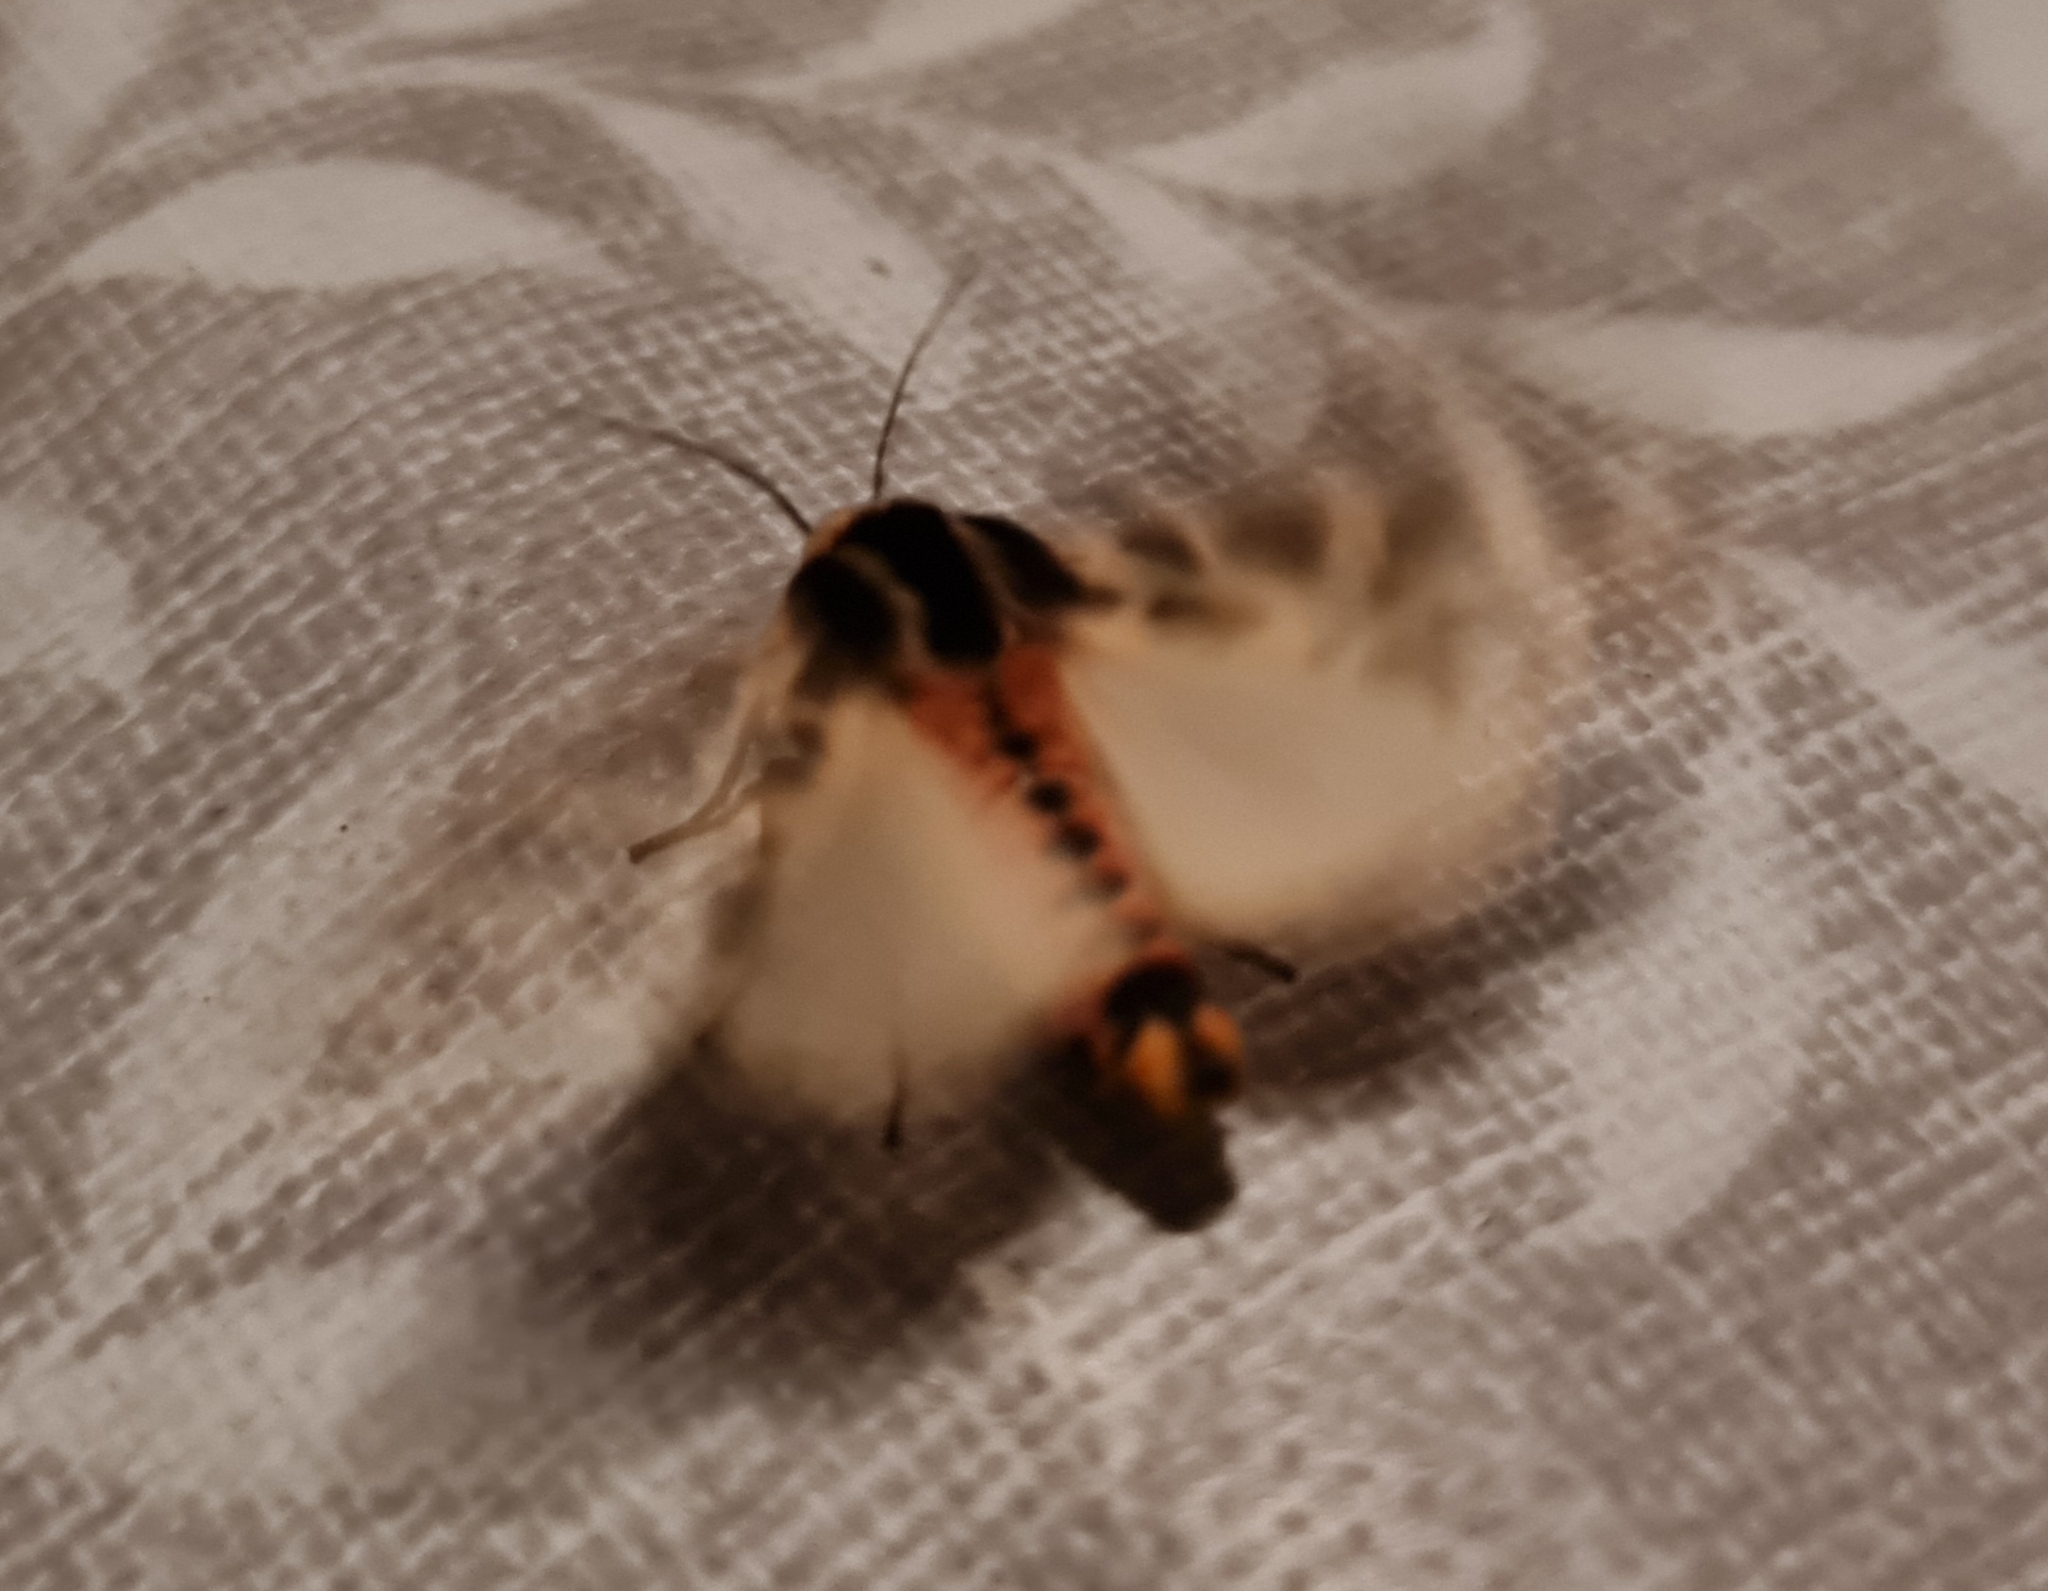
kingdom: Animalia
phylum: Arthropoda
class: Insecta
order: Lepidoptera
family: Erebidae
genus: Cymbalophora
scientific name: Cymbalophora pudica
